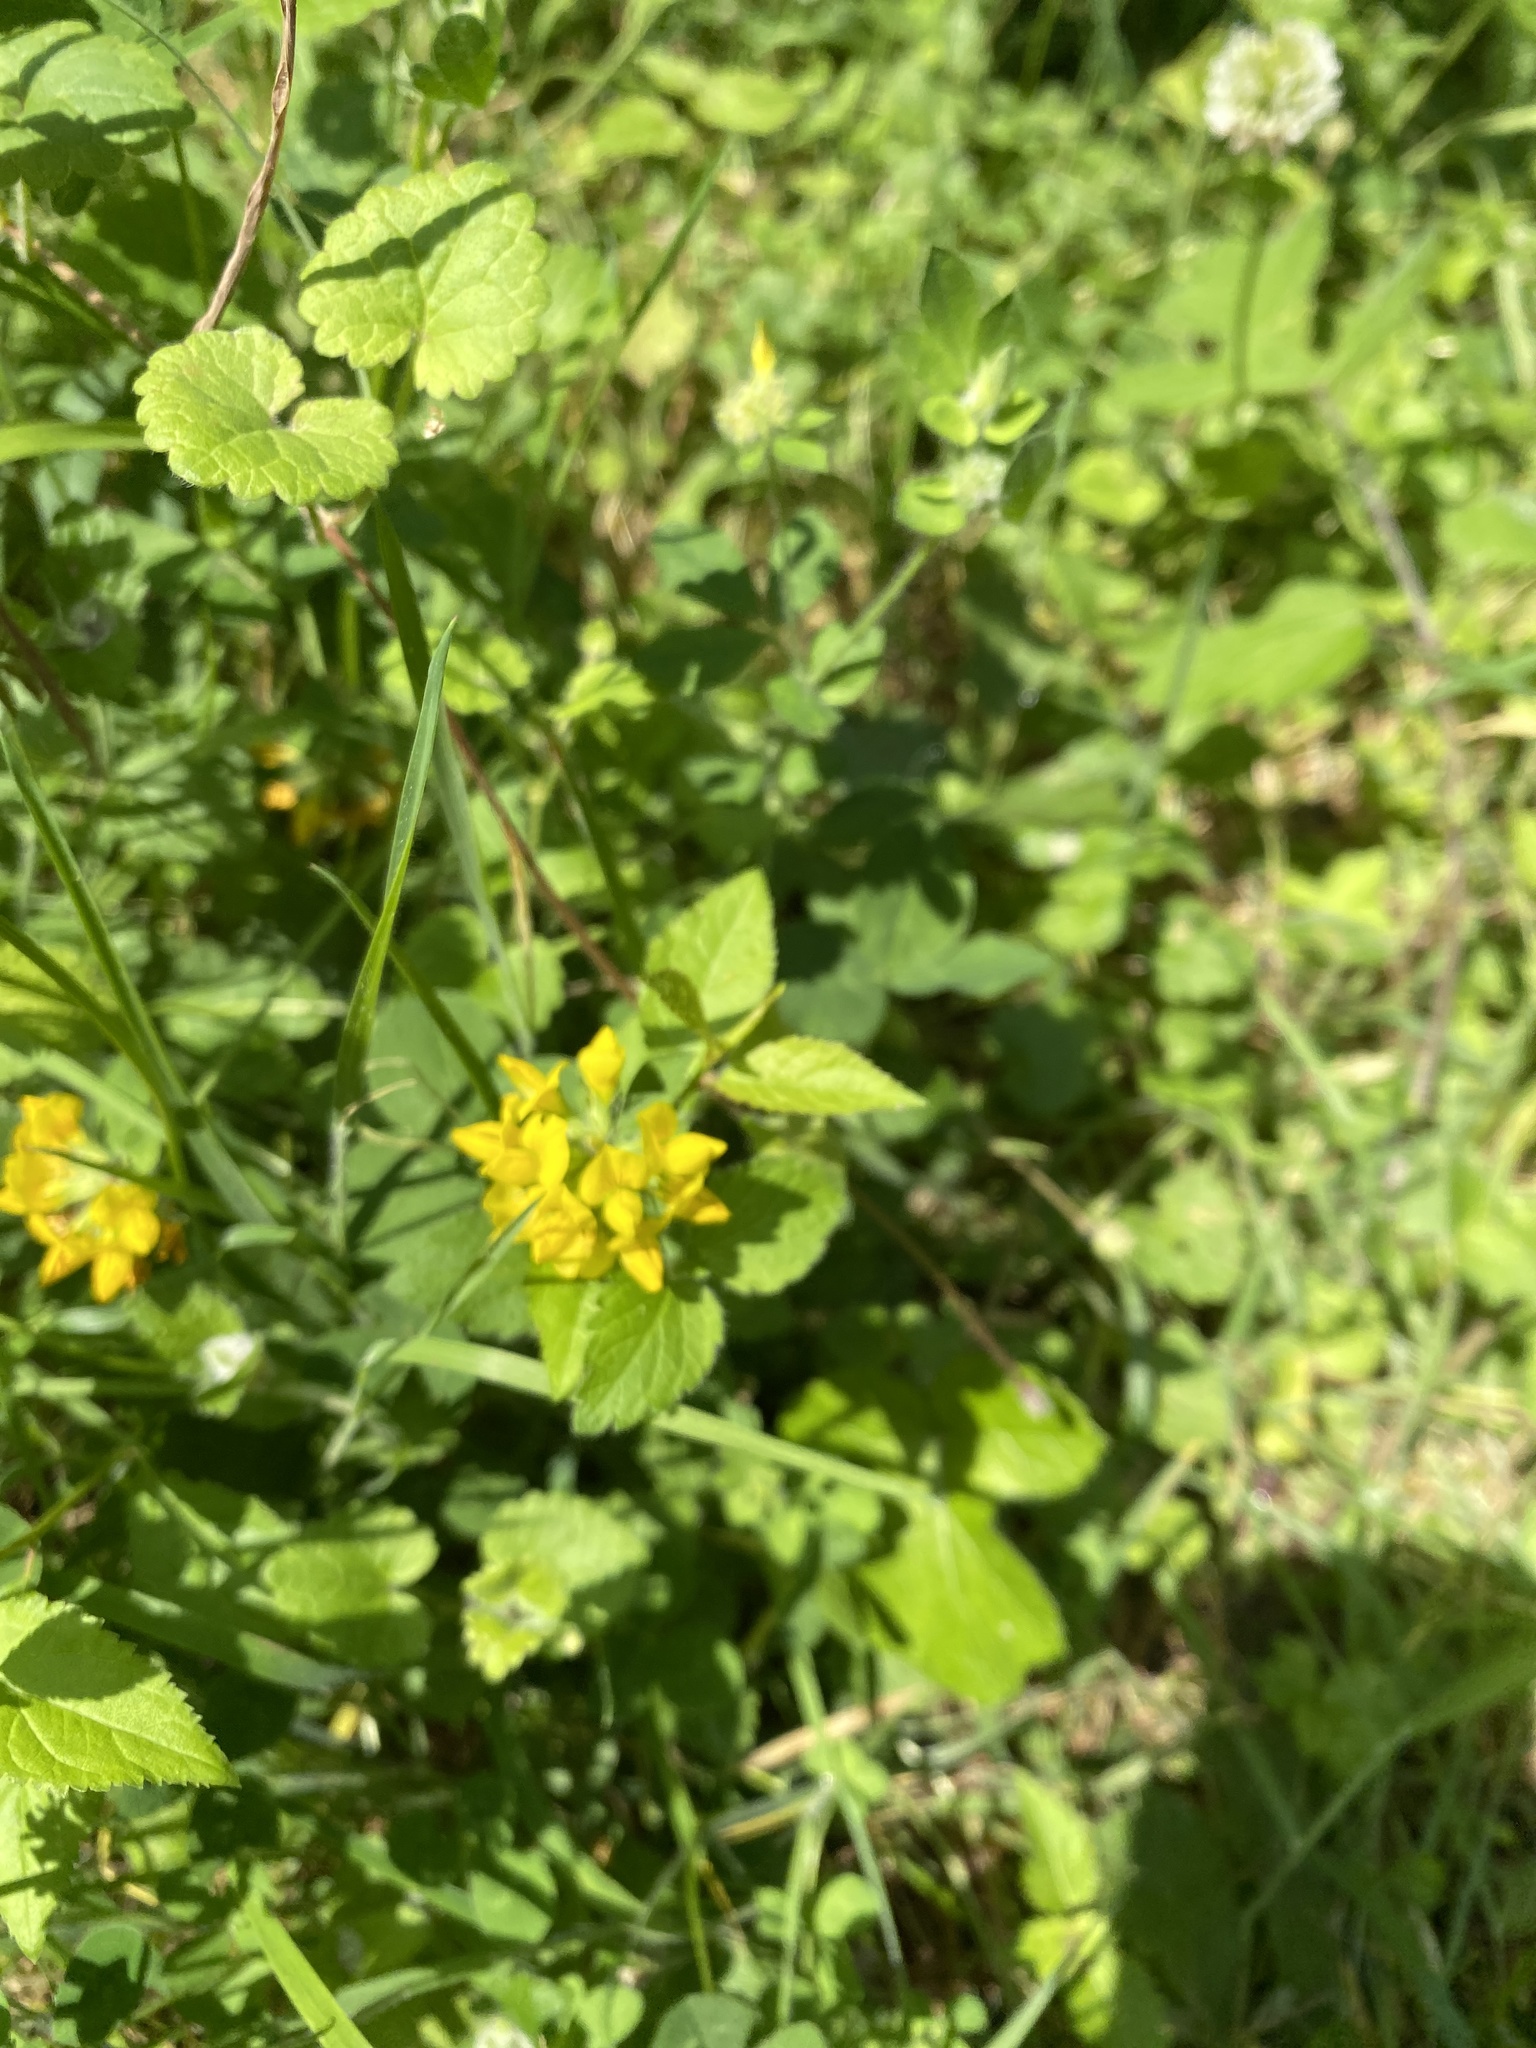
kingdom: Plantae
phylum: Tracheophyta
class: Magnoliopsida
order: Fabales
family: Fabaceae
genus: Lotus
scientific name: Lotus pedunculatus
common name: Greater birdsfoot-trefoil
